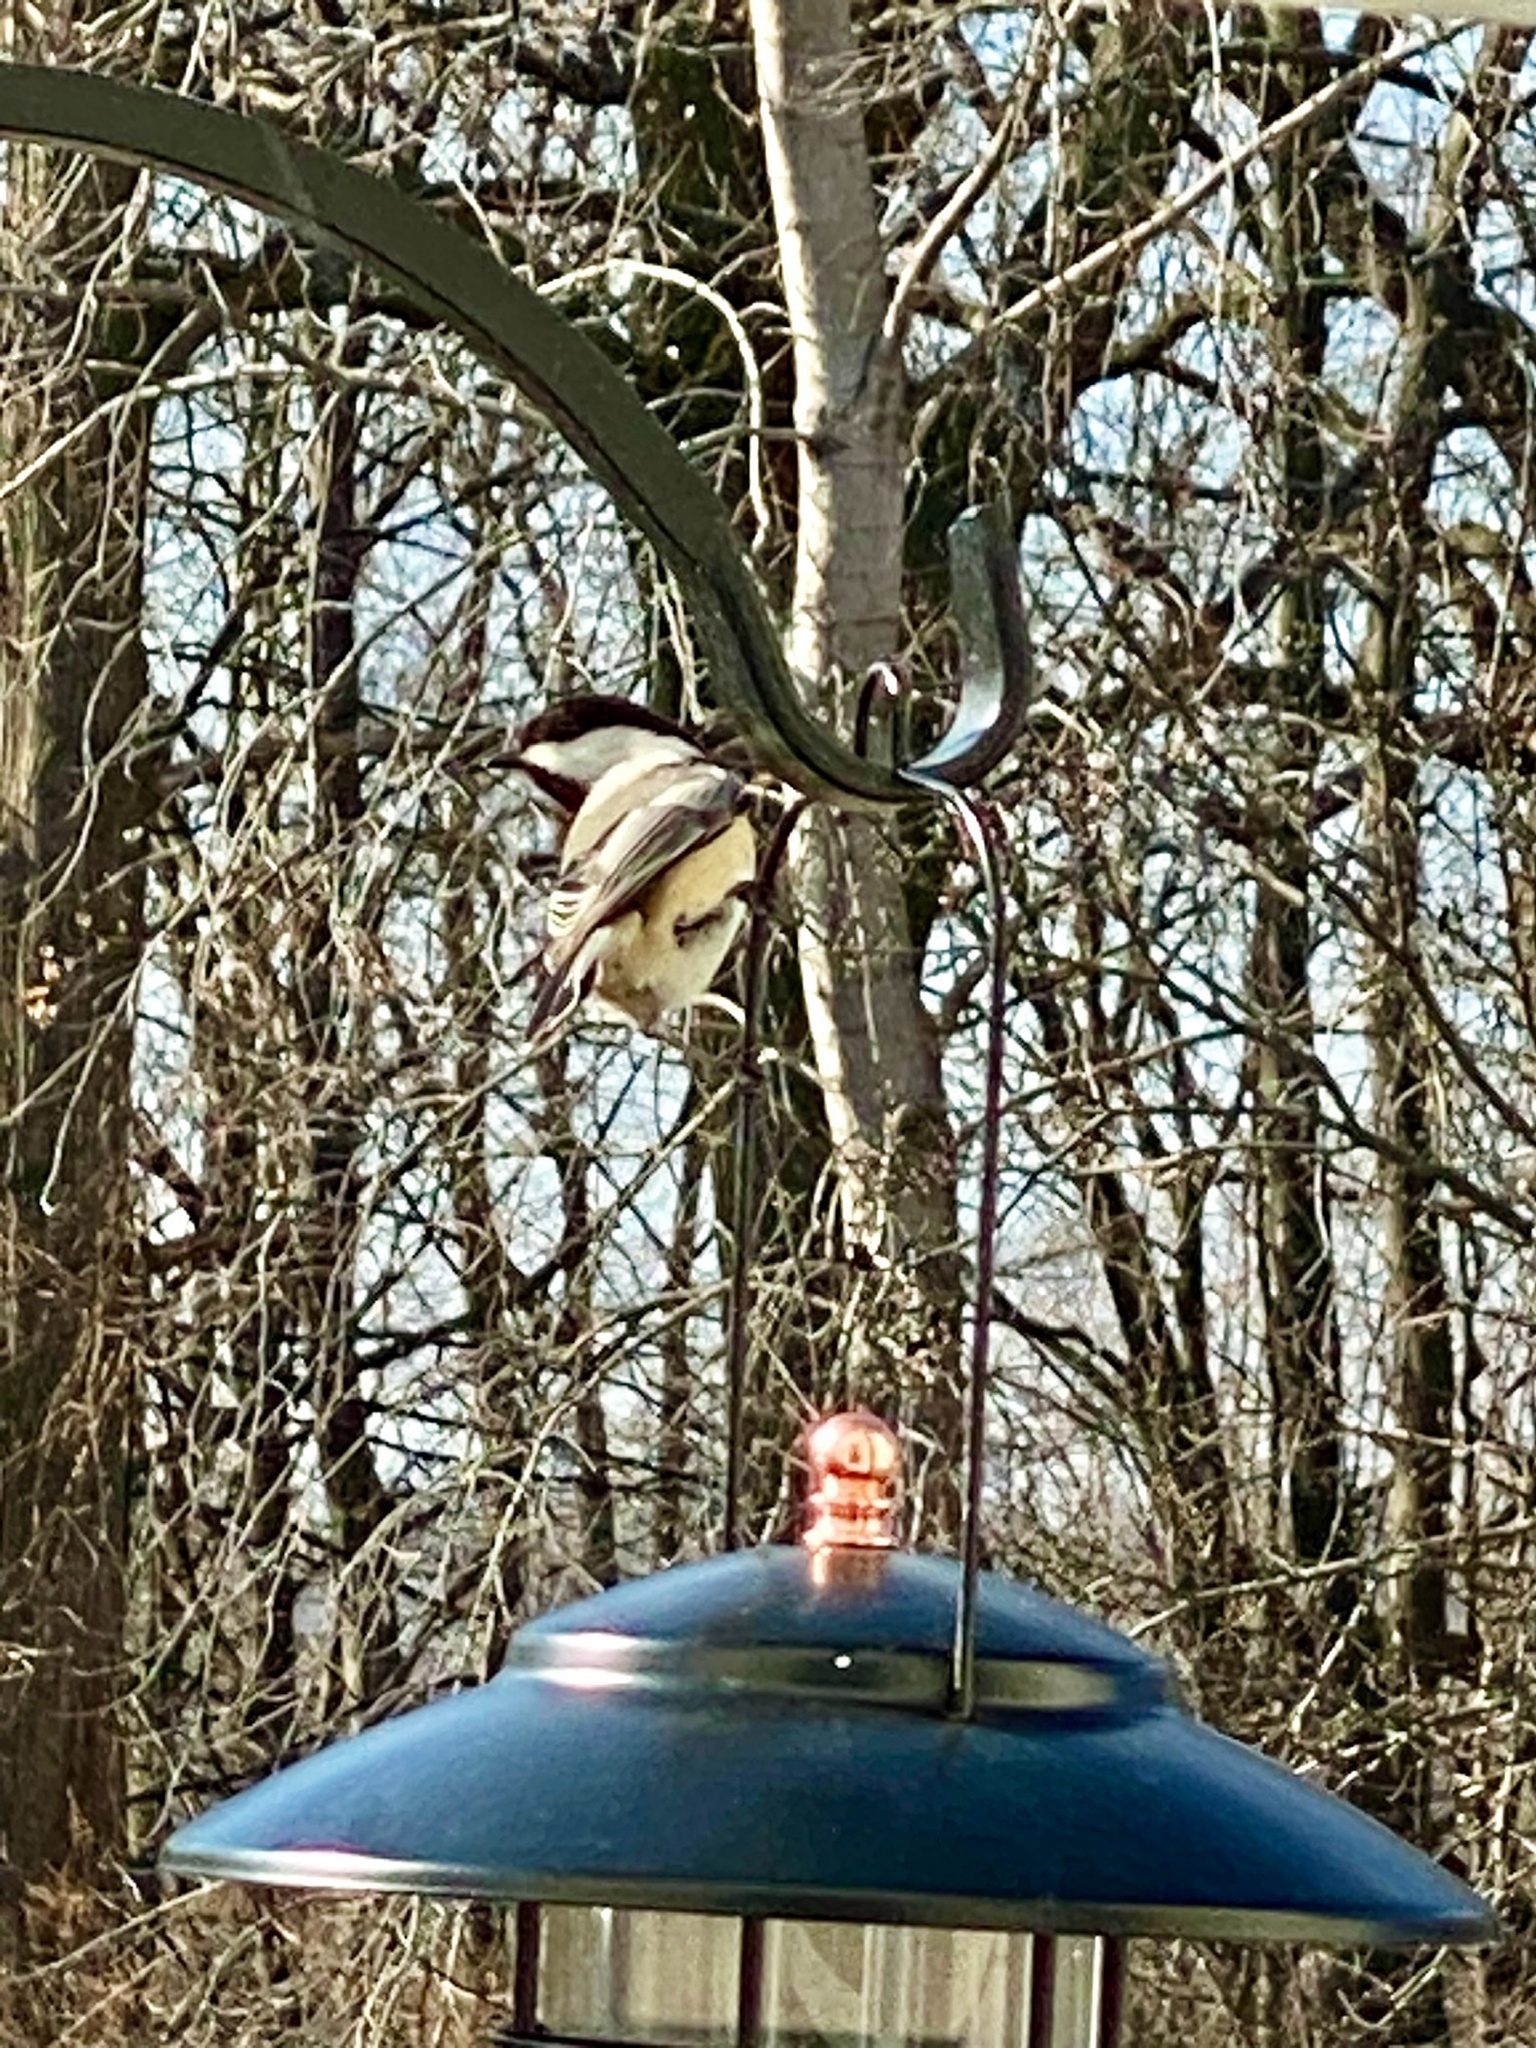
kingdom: Animalia
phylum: Chordata
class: Aves
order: Passeriformes
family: Paridae
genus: Poecile
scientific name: Poecile atricapillus
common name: Black-capped chickadee
